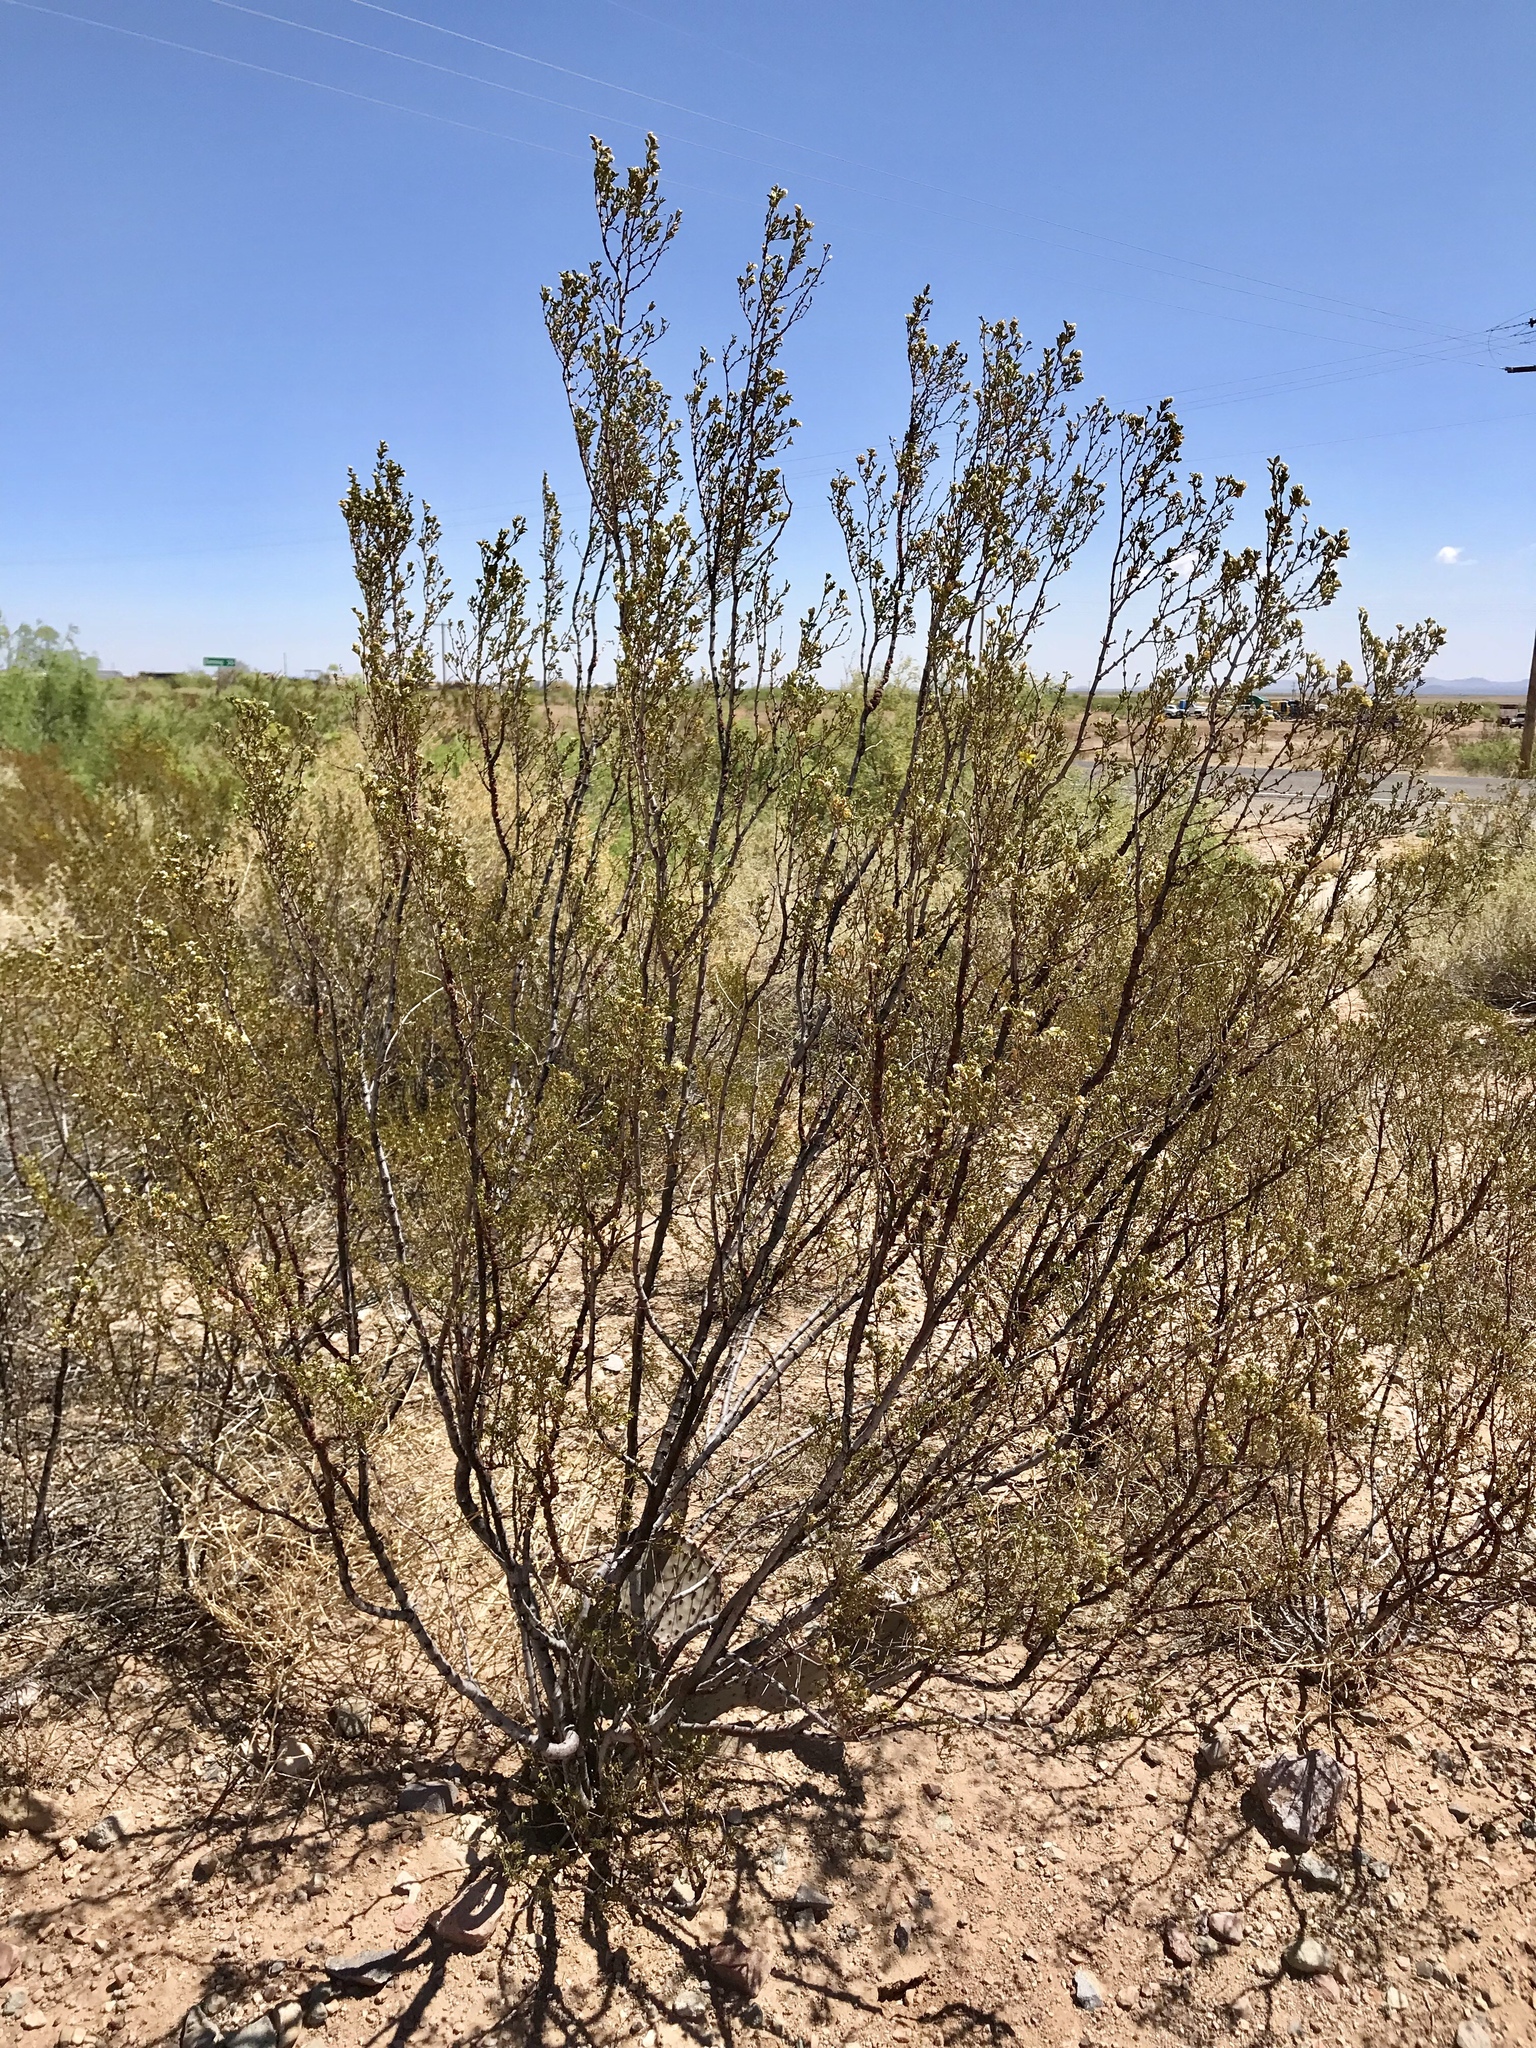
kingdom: Plantae
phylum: Tracheophyta
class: Magnoliopsida
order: Zygophyllales
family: Zygophyllaceae
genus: Larrea
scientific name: Larrea tridentata
